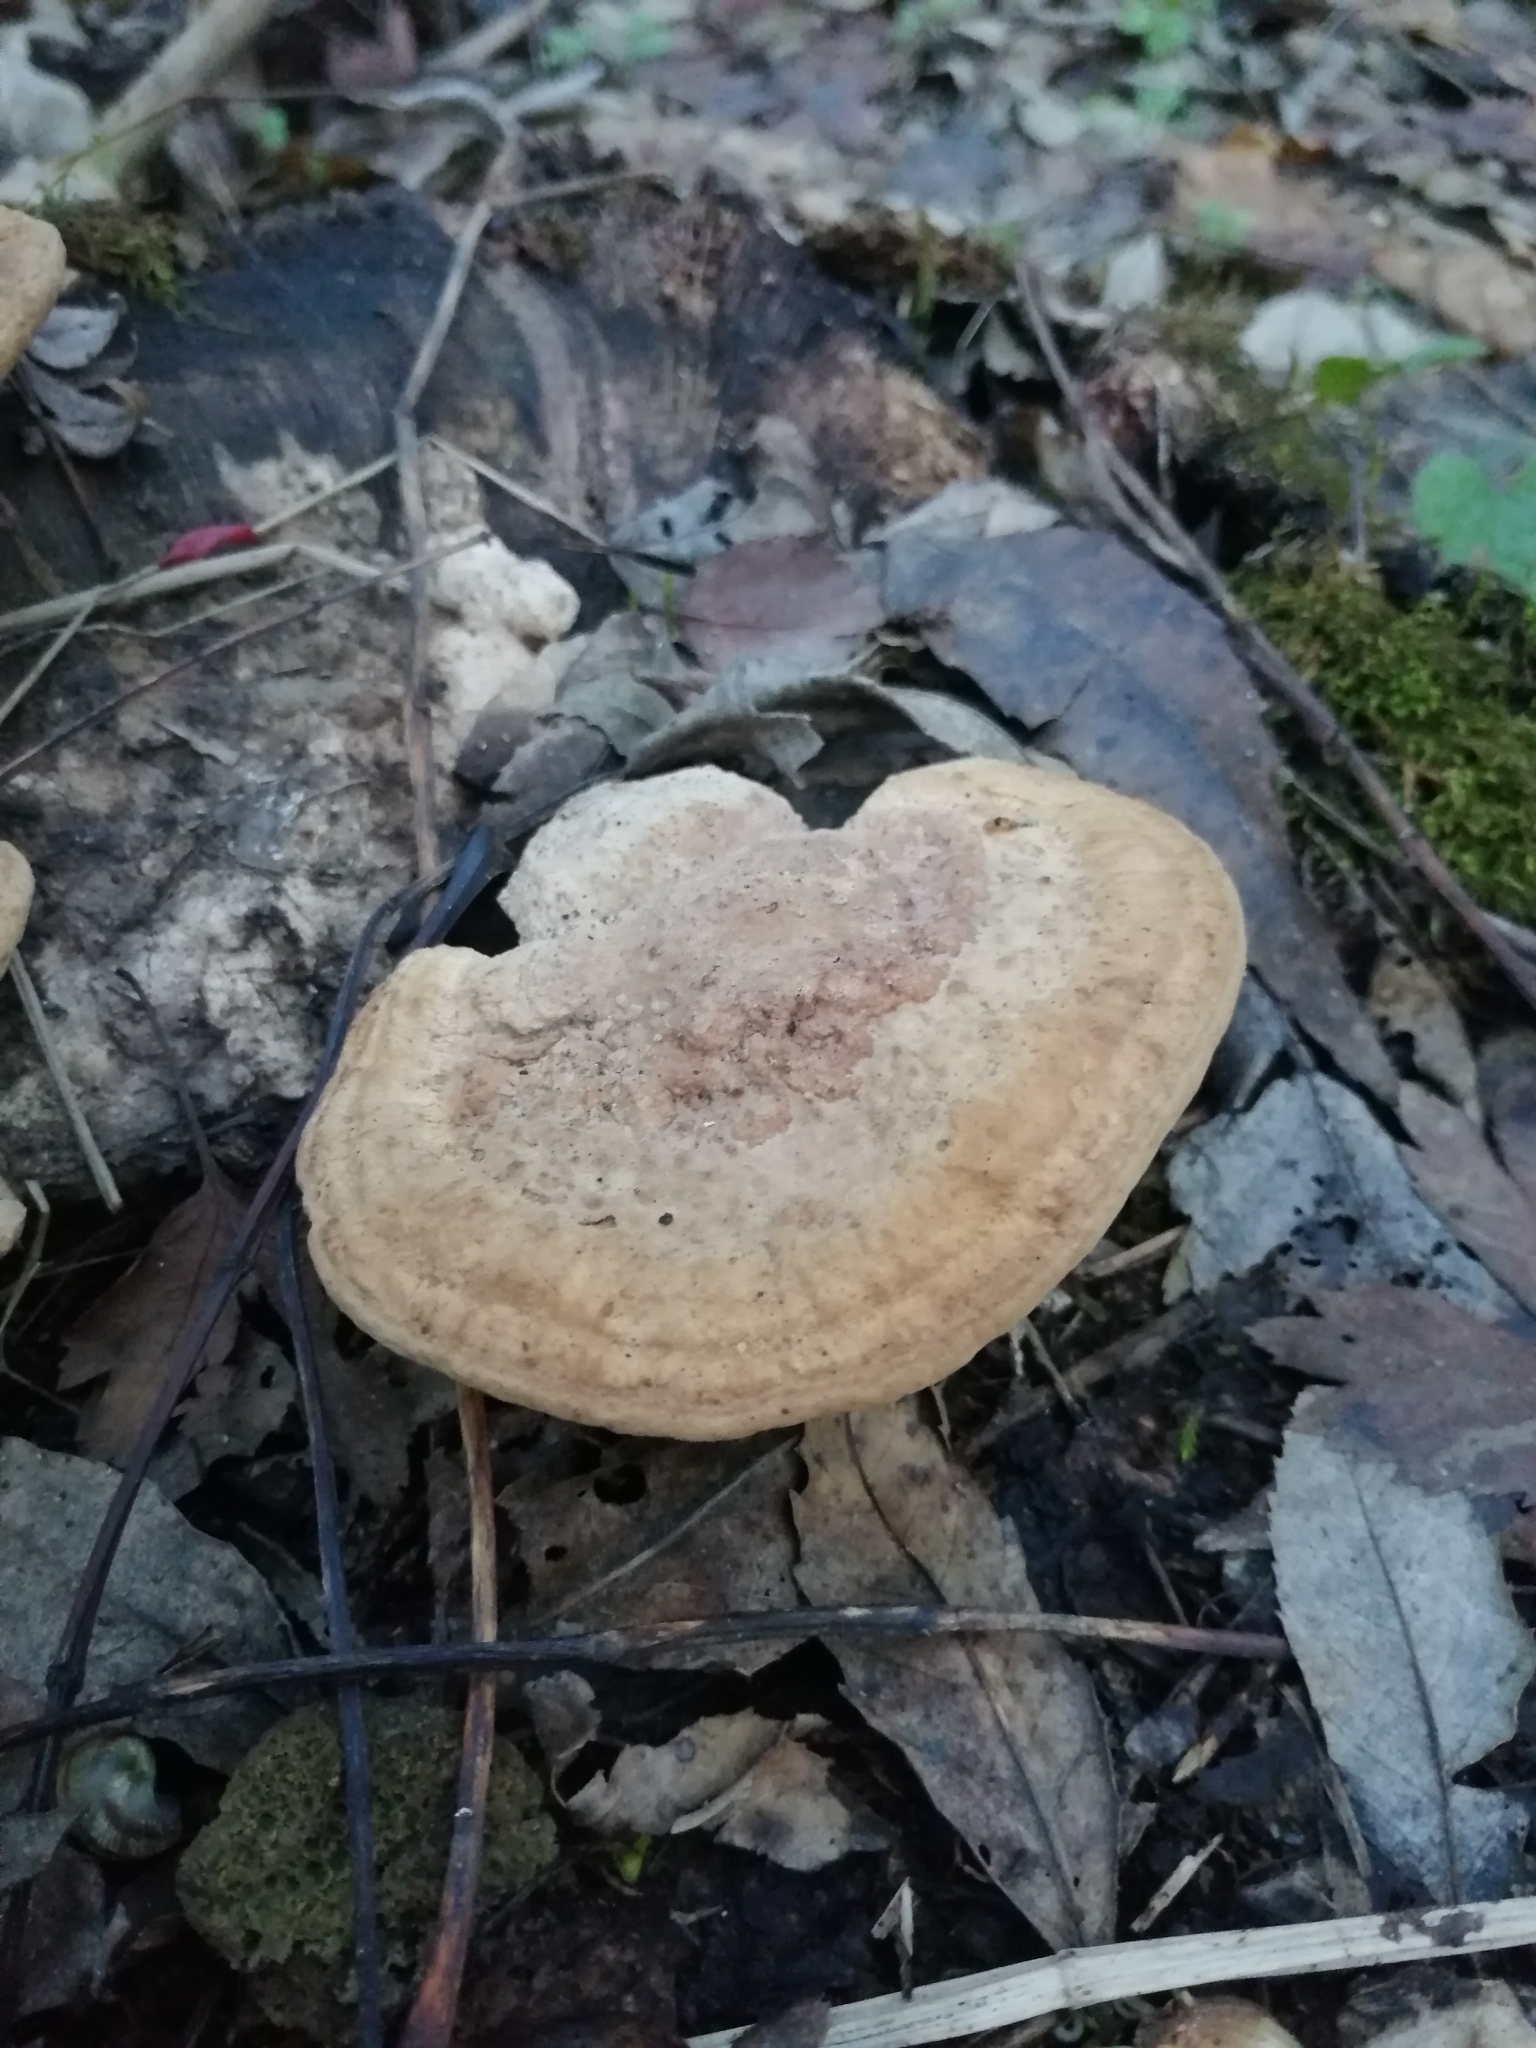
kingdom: Fungi
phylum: Basidiomycota
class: Agaricomycetes
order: Polyporales
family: Fomitopsidaceae
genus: Fomitopsis
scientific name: Fomitopsis
